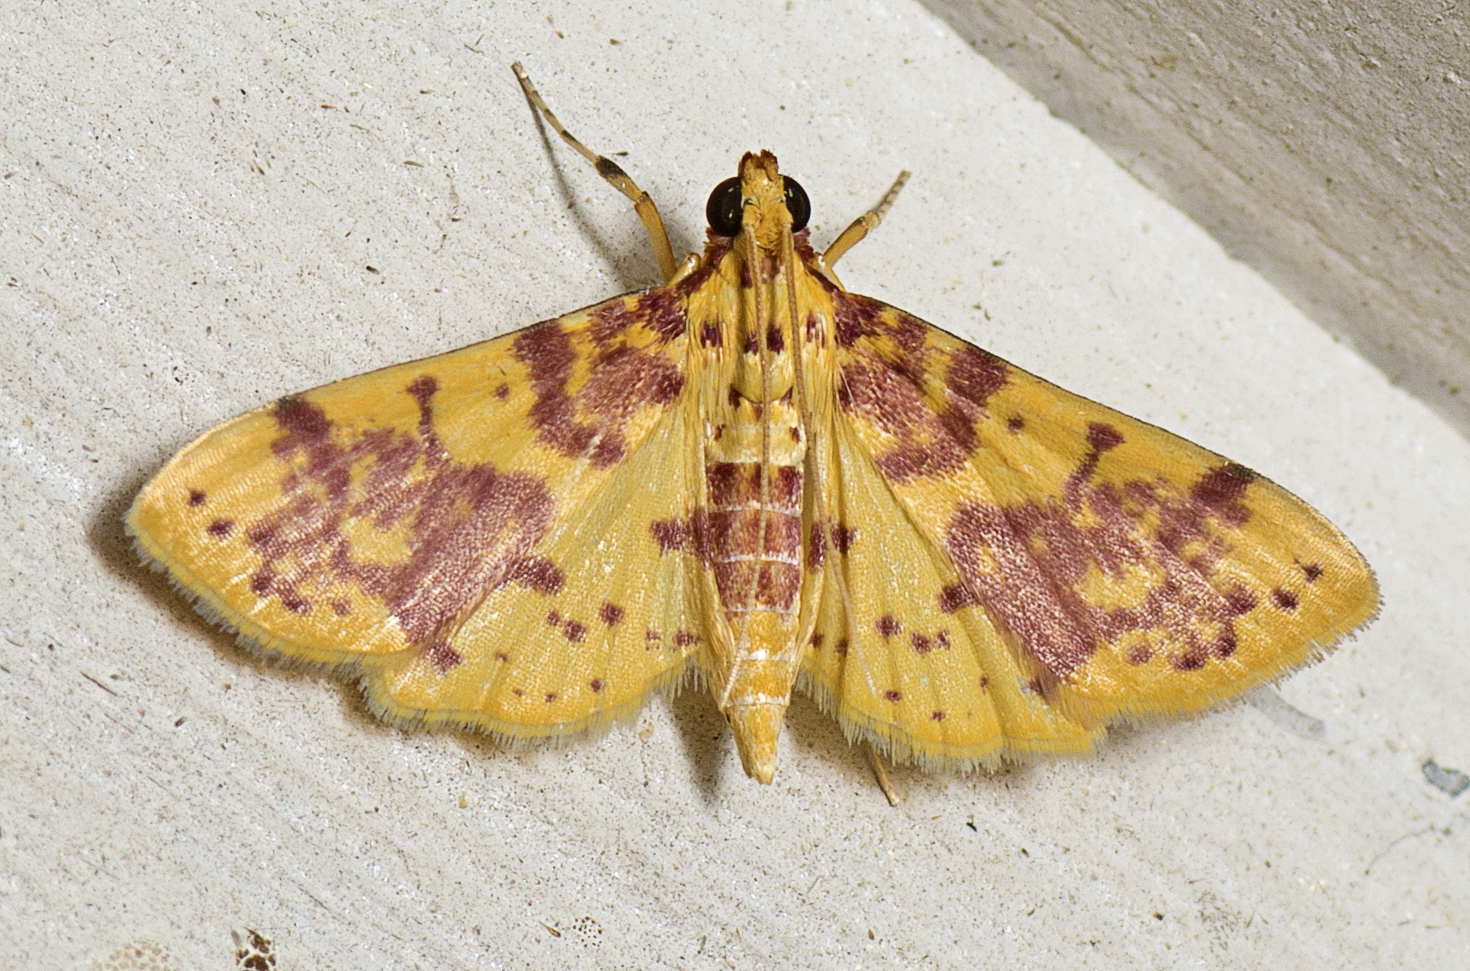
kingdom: Animalia
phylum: Arthropoda
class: Insecta
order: Lepidoptera
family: Crambidae
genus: Conogethes
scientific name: Conogethes haemactalis
